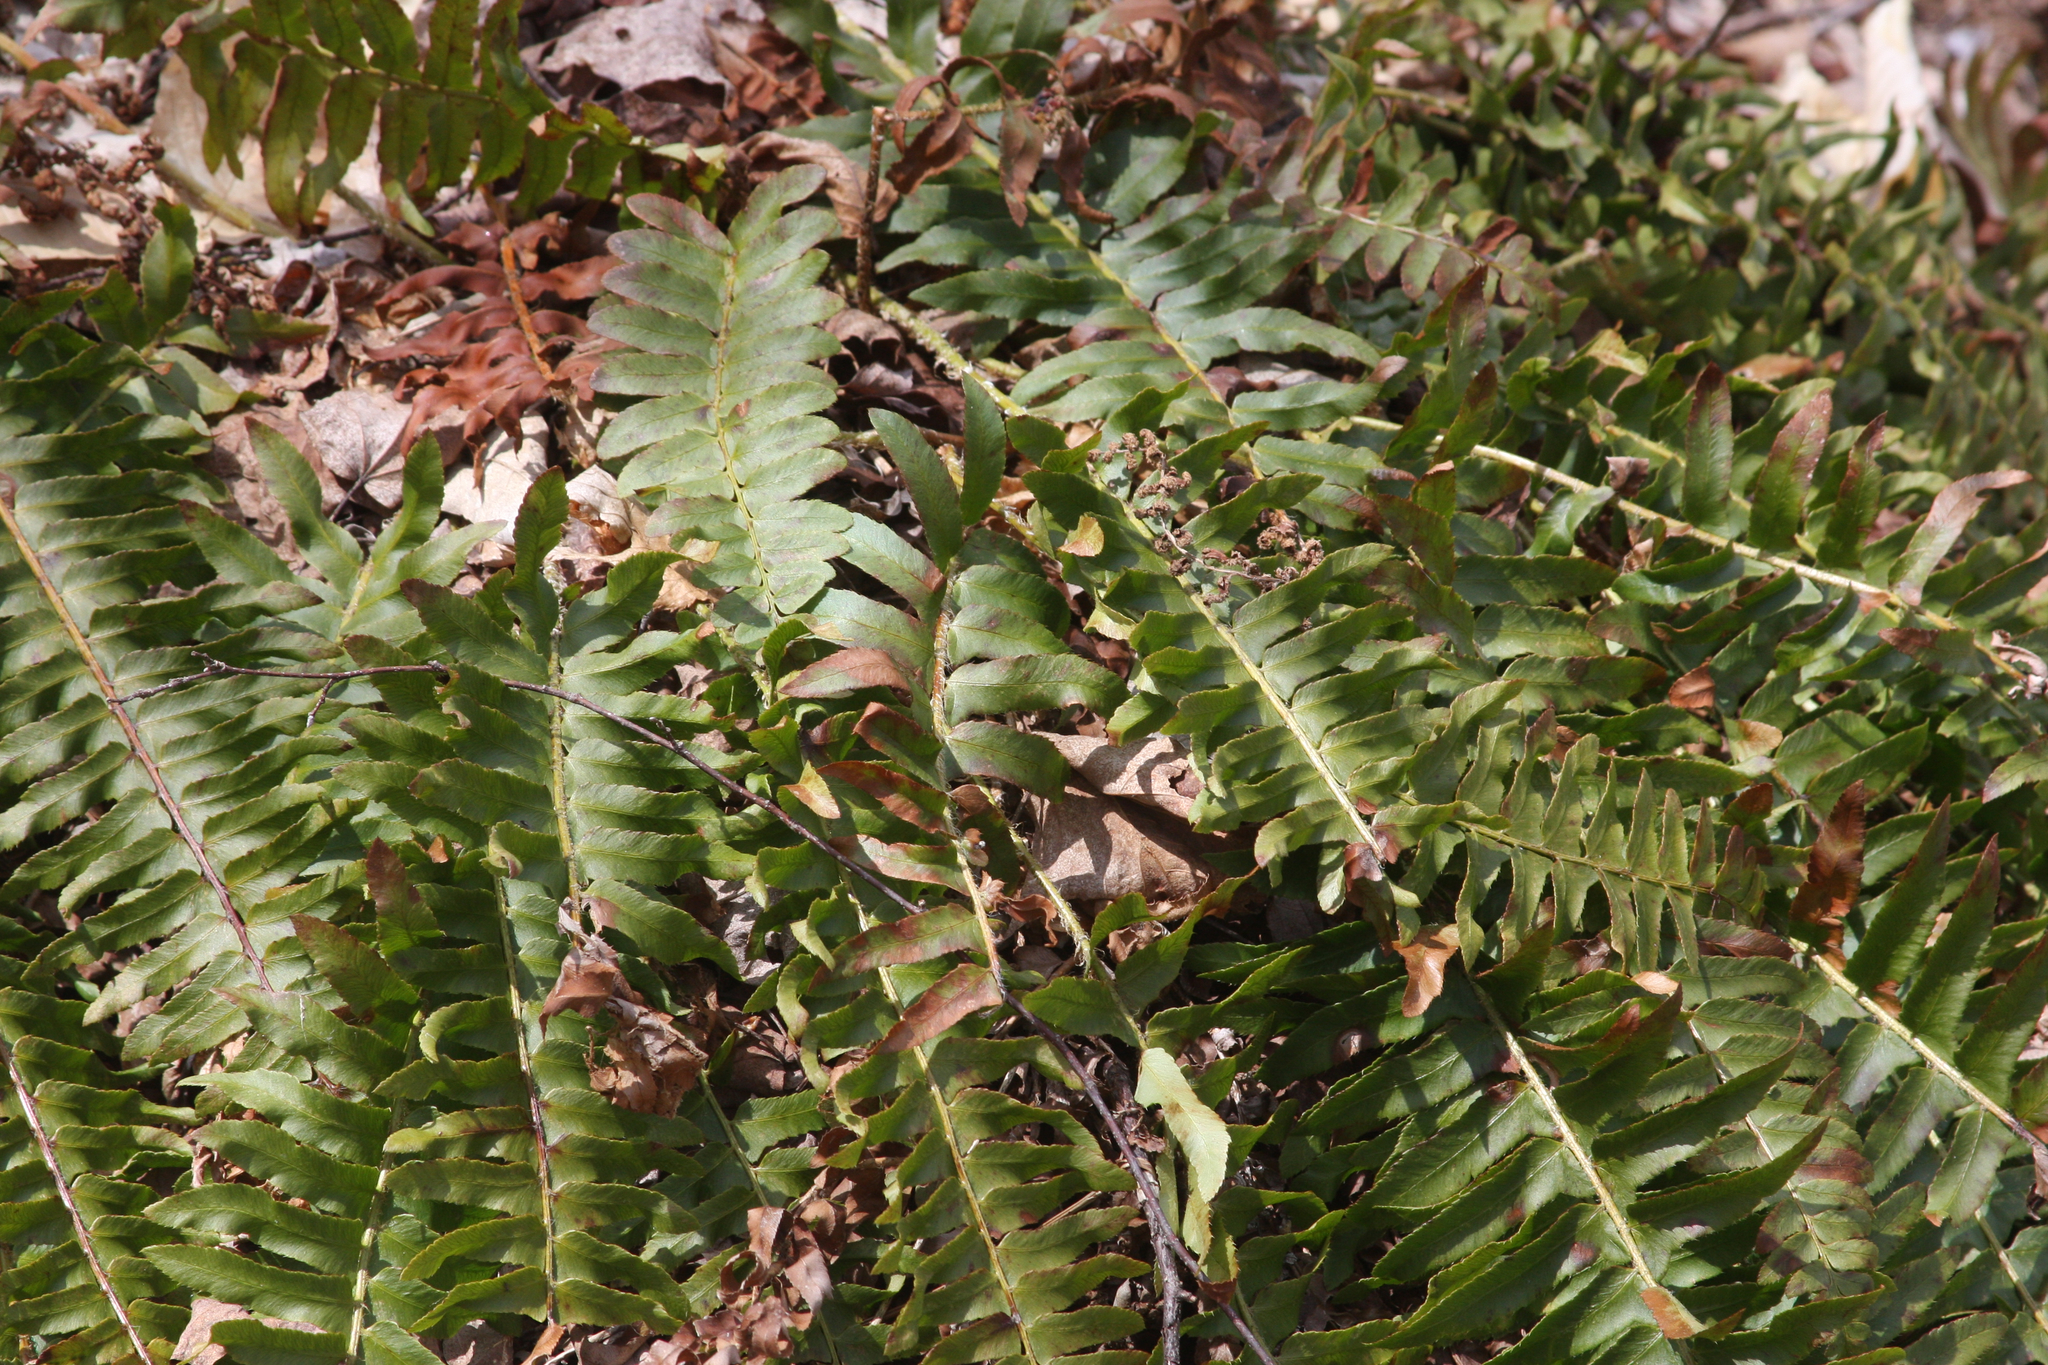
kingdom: Plantae
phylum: Tracheophyta
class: Polypodiopsida
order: Polypodiales
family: Dryopteridaceae
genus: Polystichum
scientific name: Polystichum acrostichoides
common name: Christmas fern
